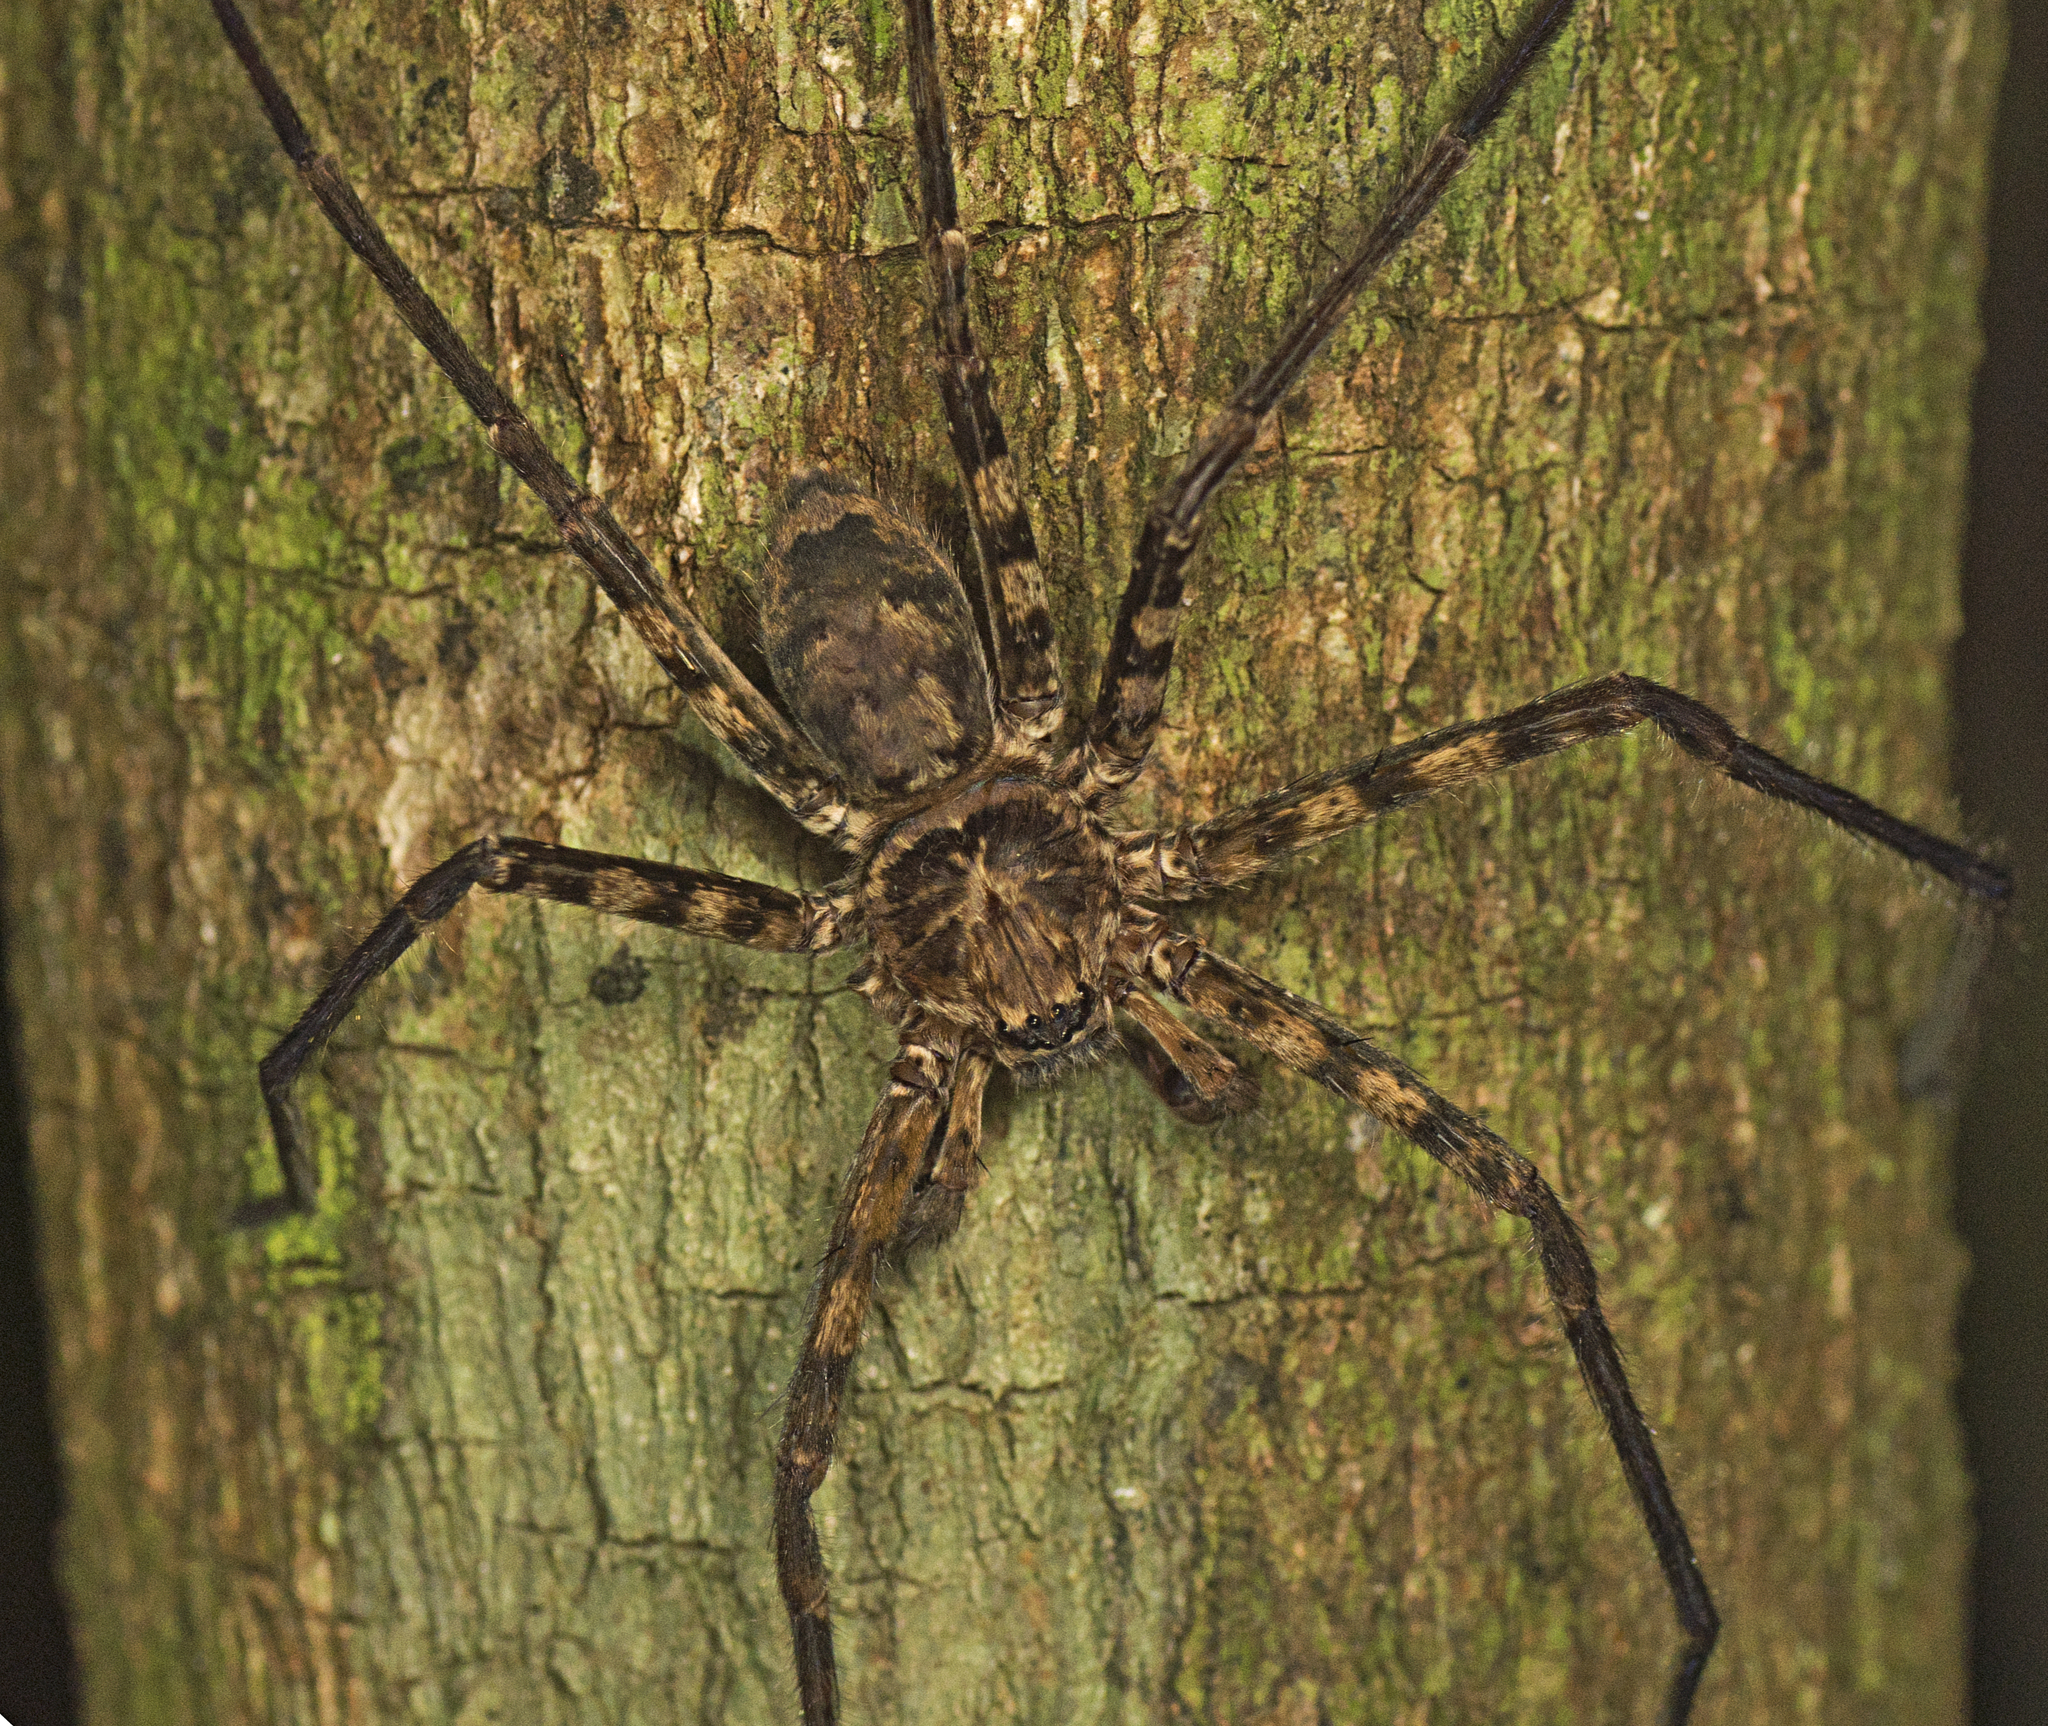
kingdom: Animalia
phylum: Arthropoda
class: Arachnida
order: Araneae
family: Sparassidae
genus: Heteropoda
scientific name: Heteropoda procera
